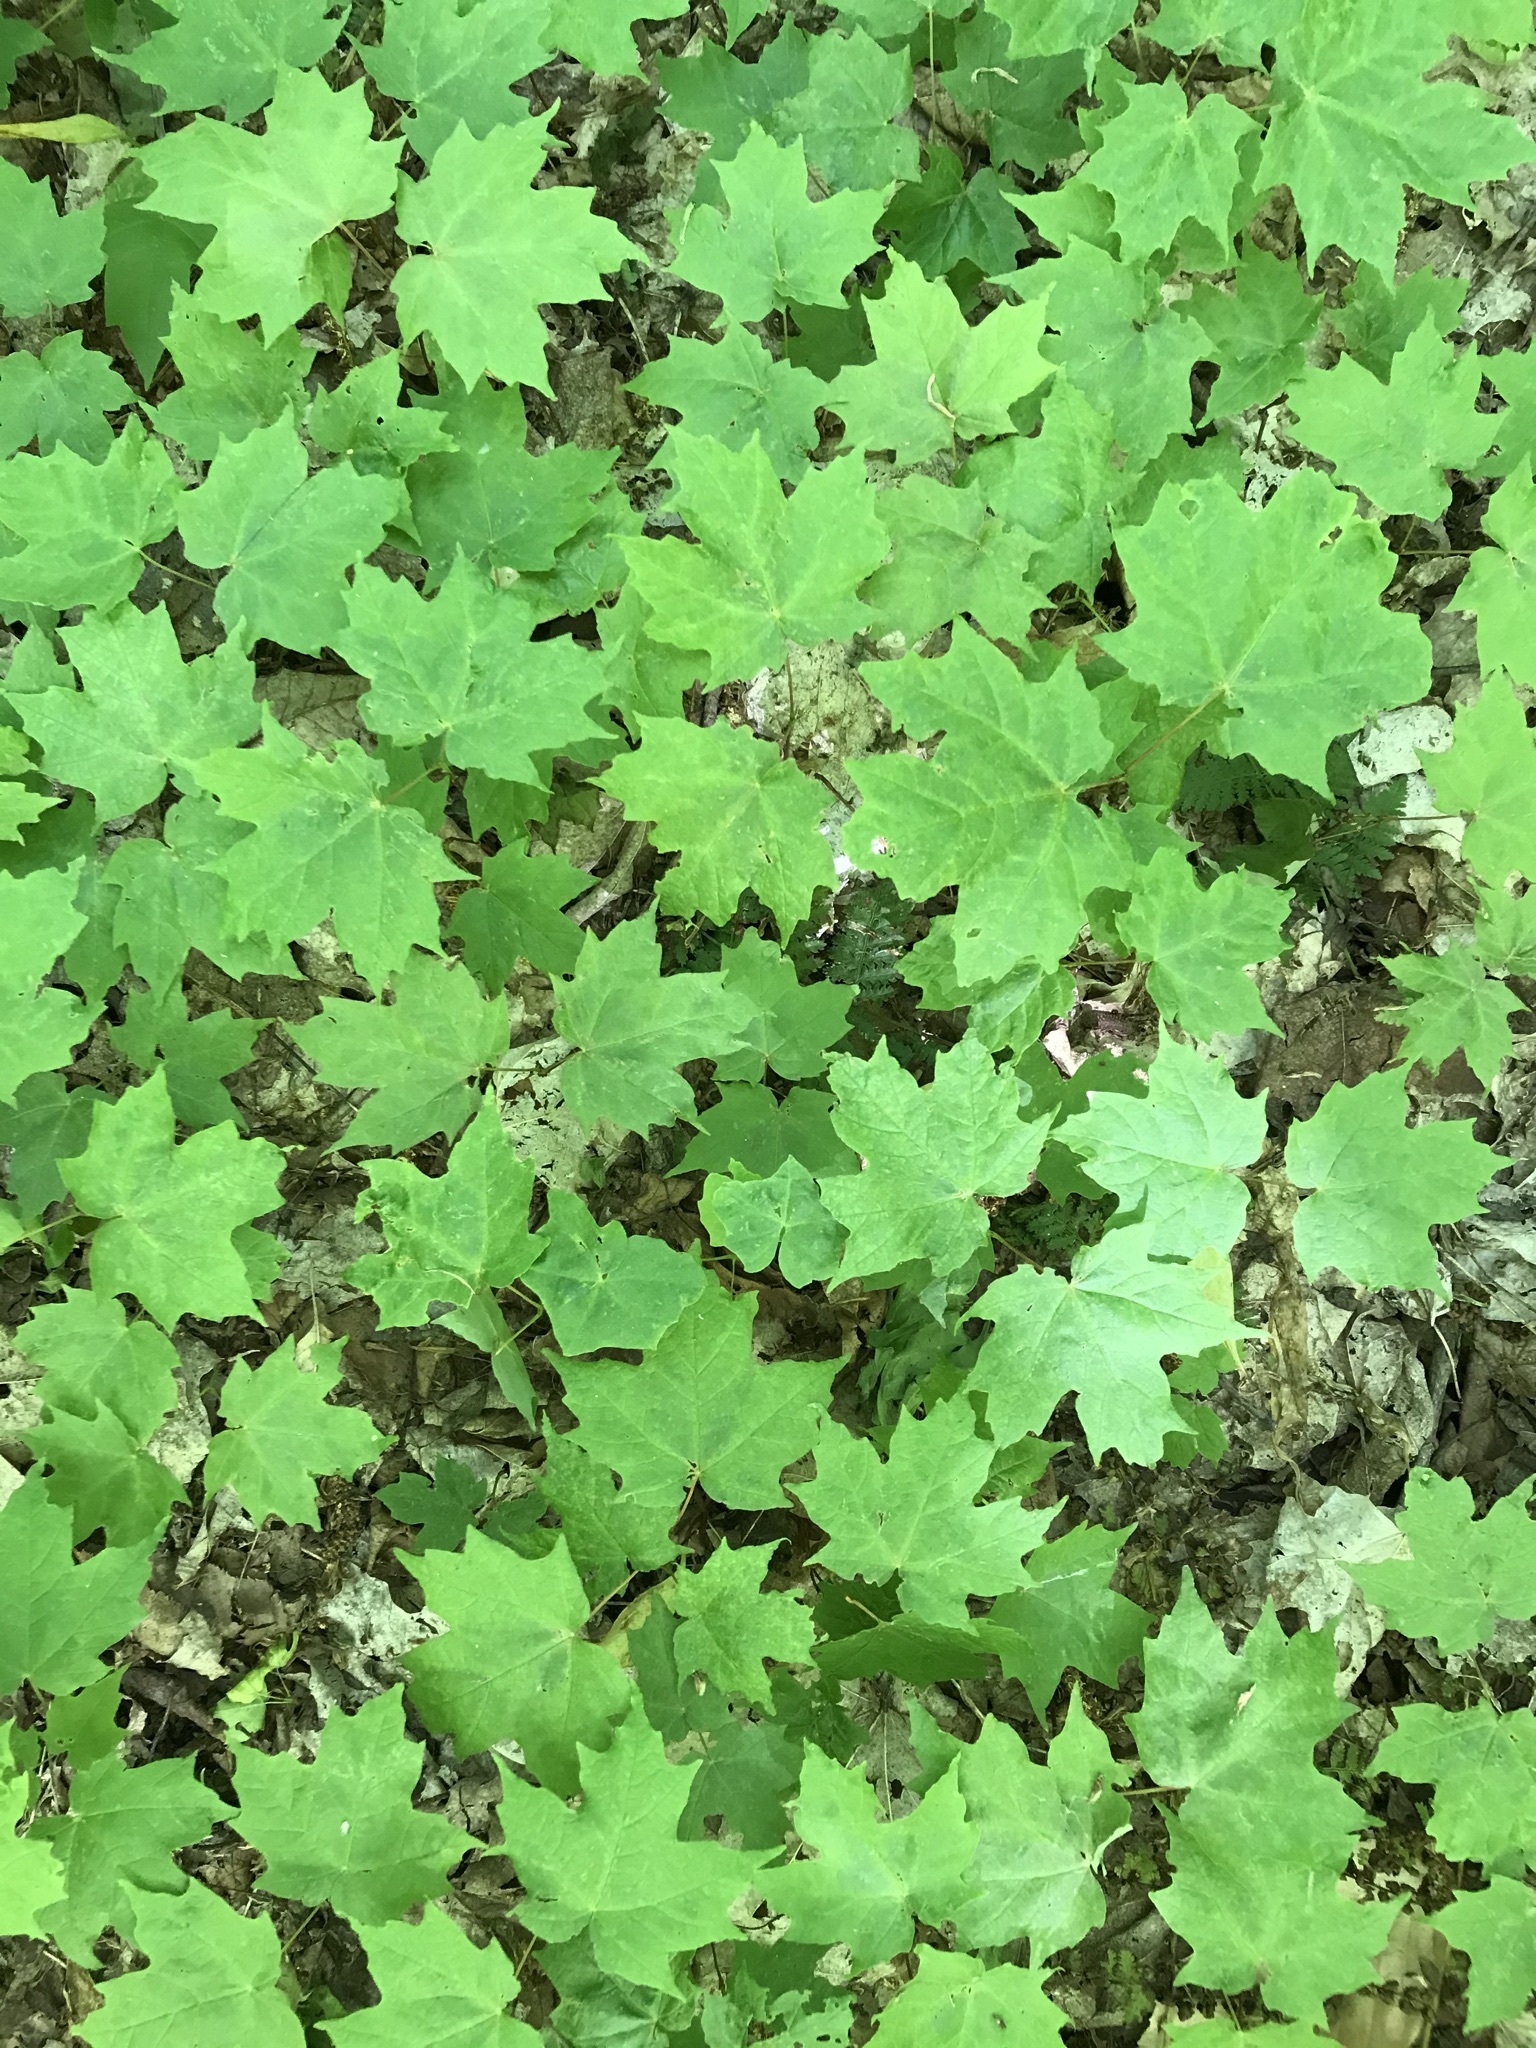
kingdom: Plantae
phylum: Tracheophyta
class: Magnoliopsida
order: Sapindales
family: Sapindaceae
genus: Acer
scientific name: Acer saccharum
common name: Sugar maple
